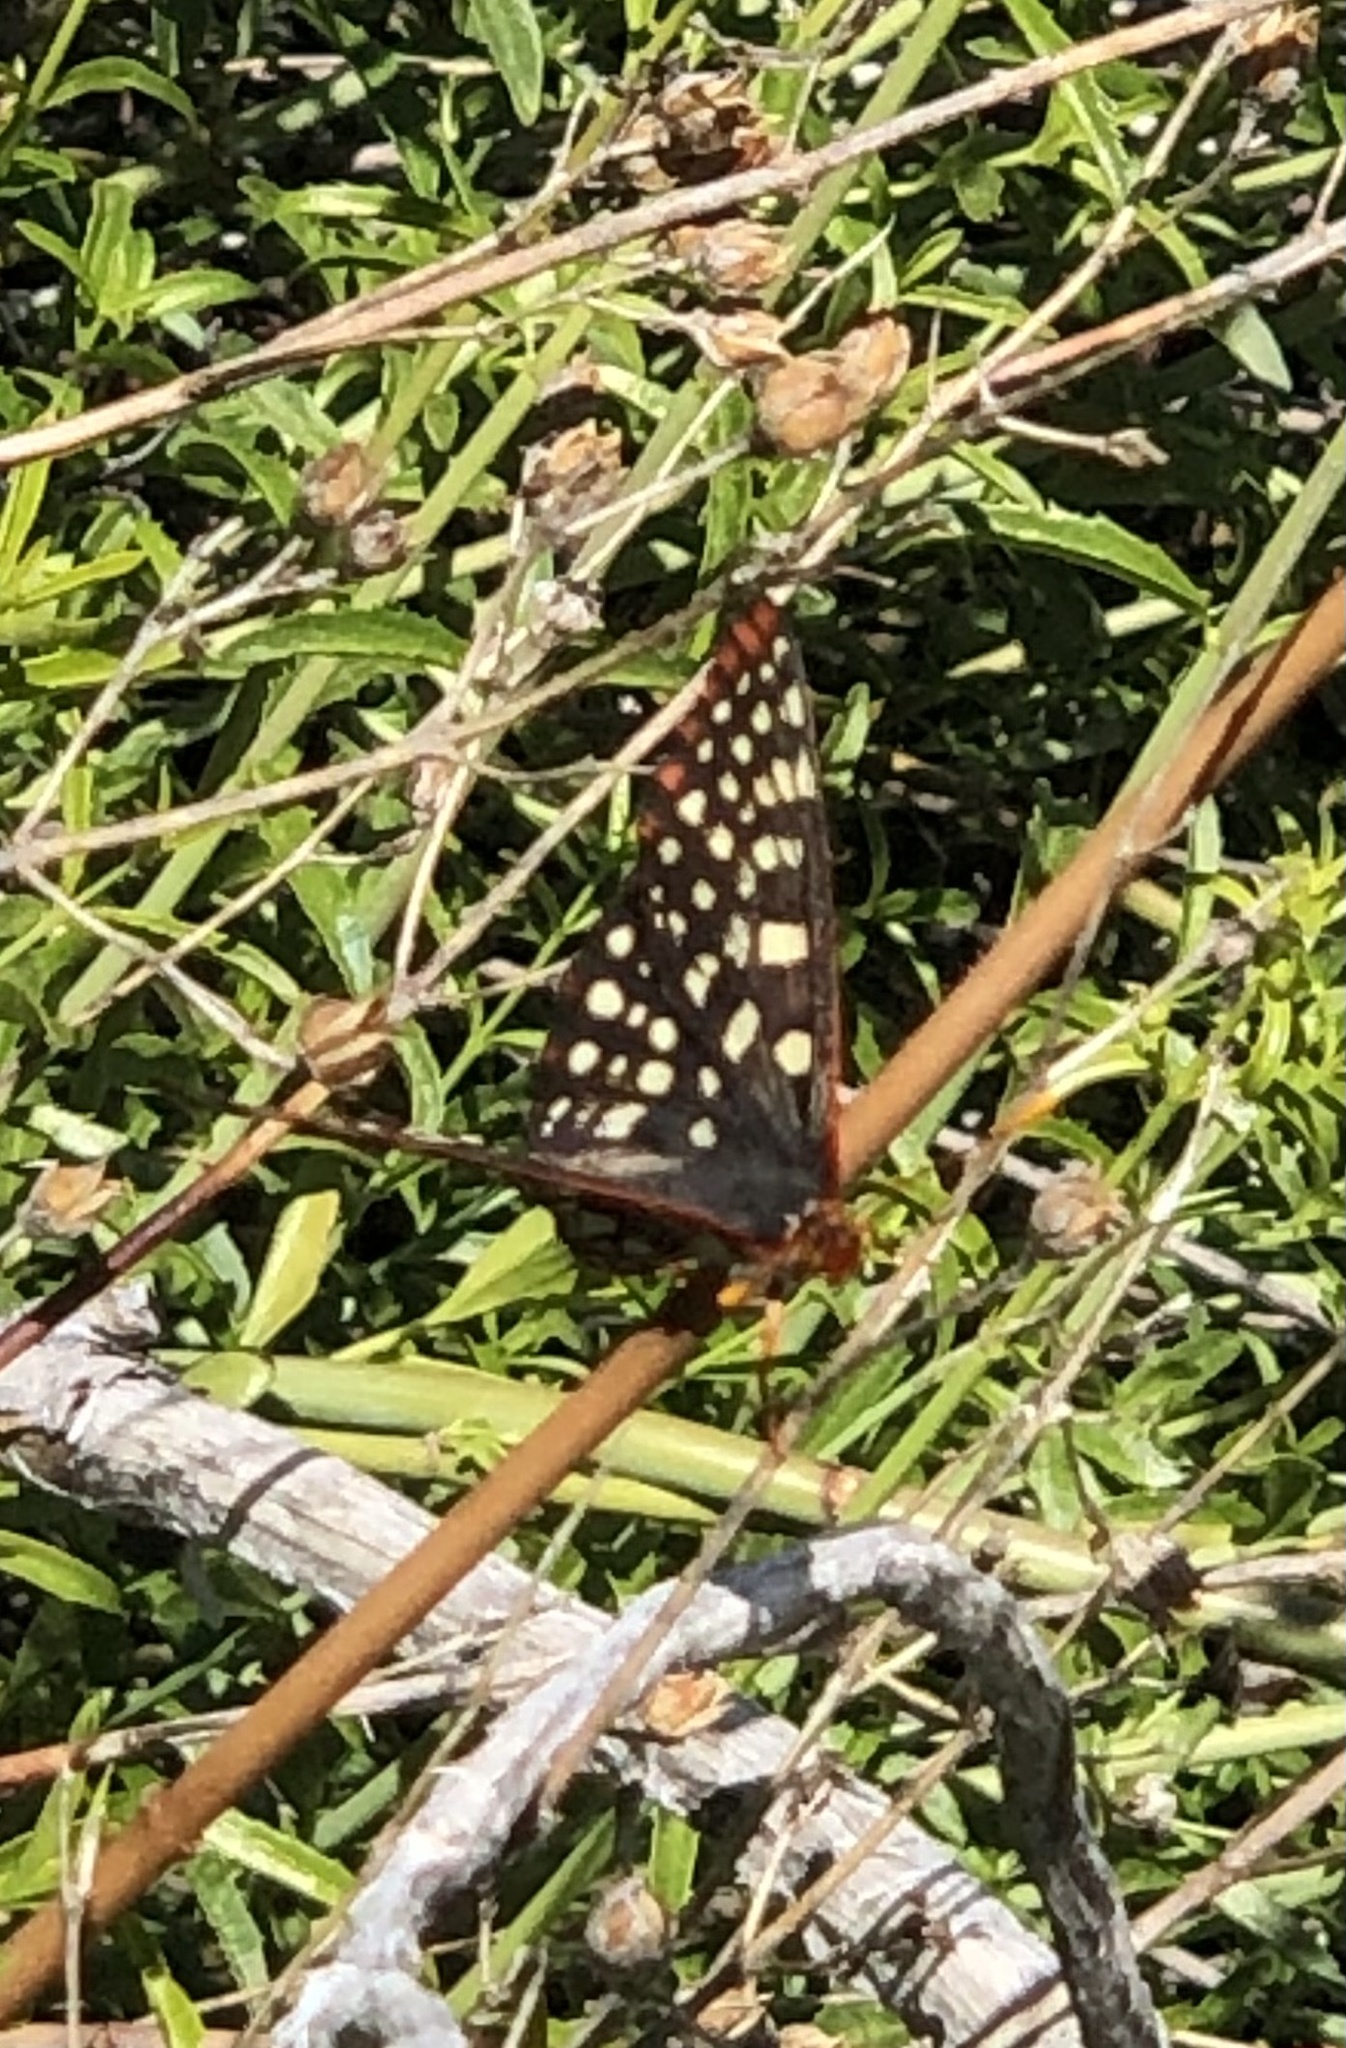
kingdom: Animalia
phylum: Arthropoda
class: Insecta
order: Lepidoptera
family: Nymphalidae
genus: Occidryas
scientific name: Occidryas chalcedona
